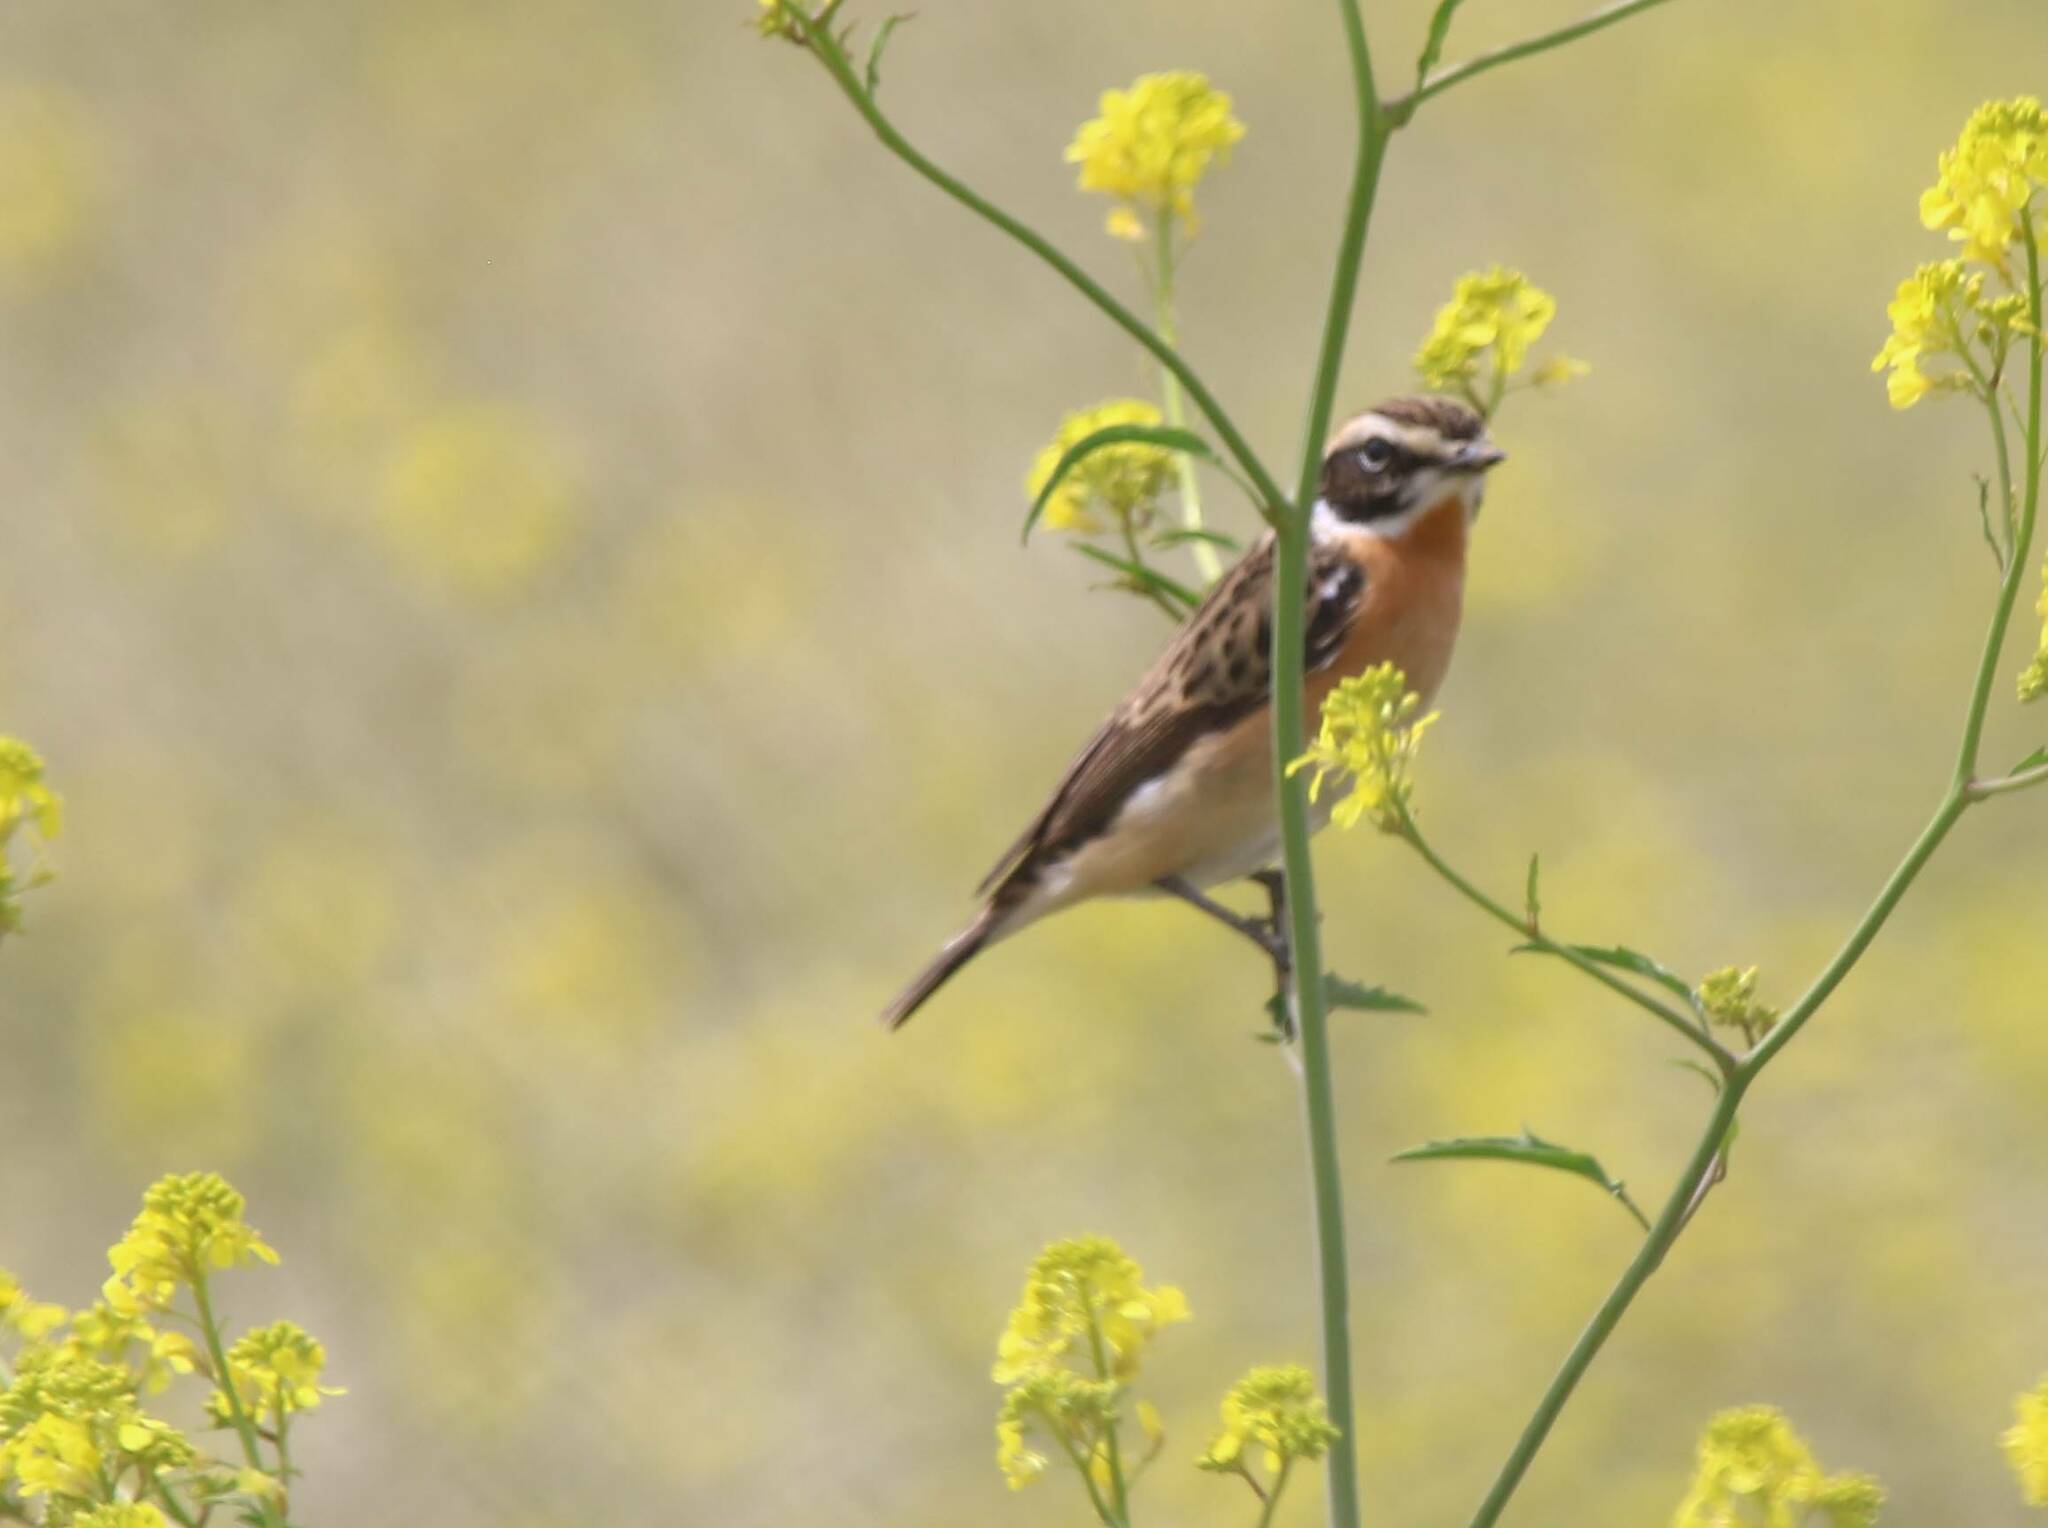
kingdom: Animalia
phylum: Chordata
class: Aves
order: Passeriformes
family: Muscicapidae
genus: Saxicola
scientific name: Saxicola rubetra
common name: Whinchat
